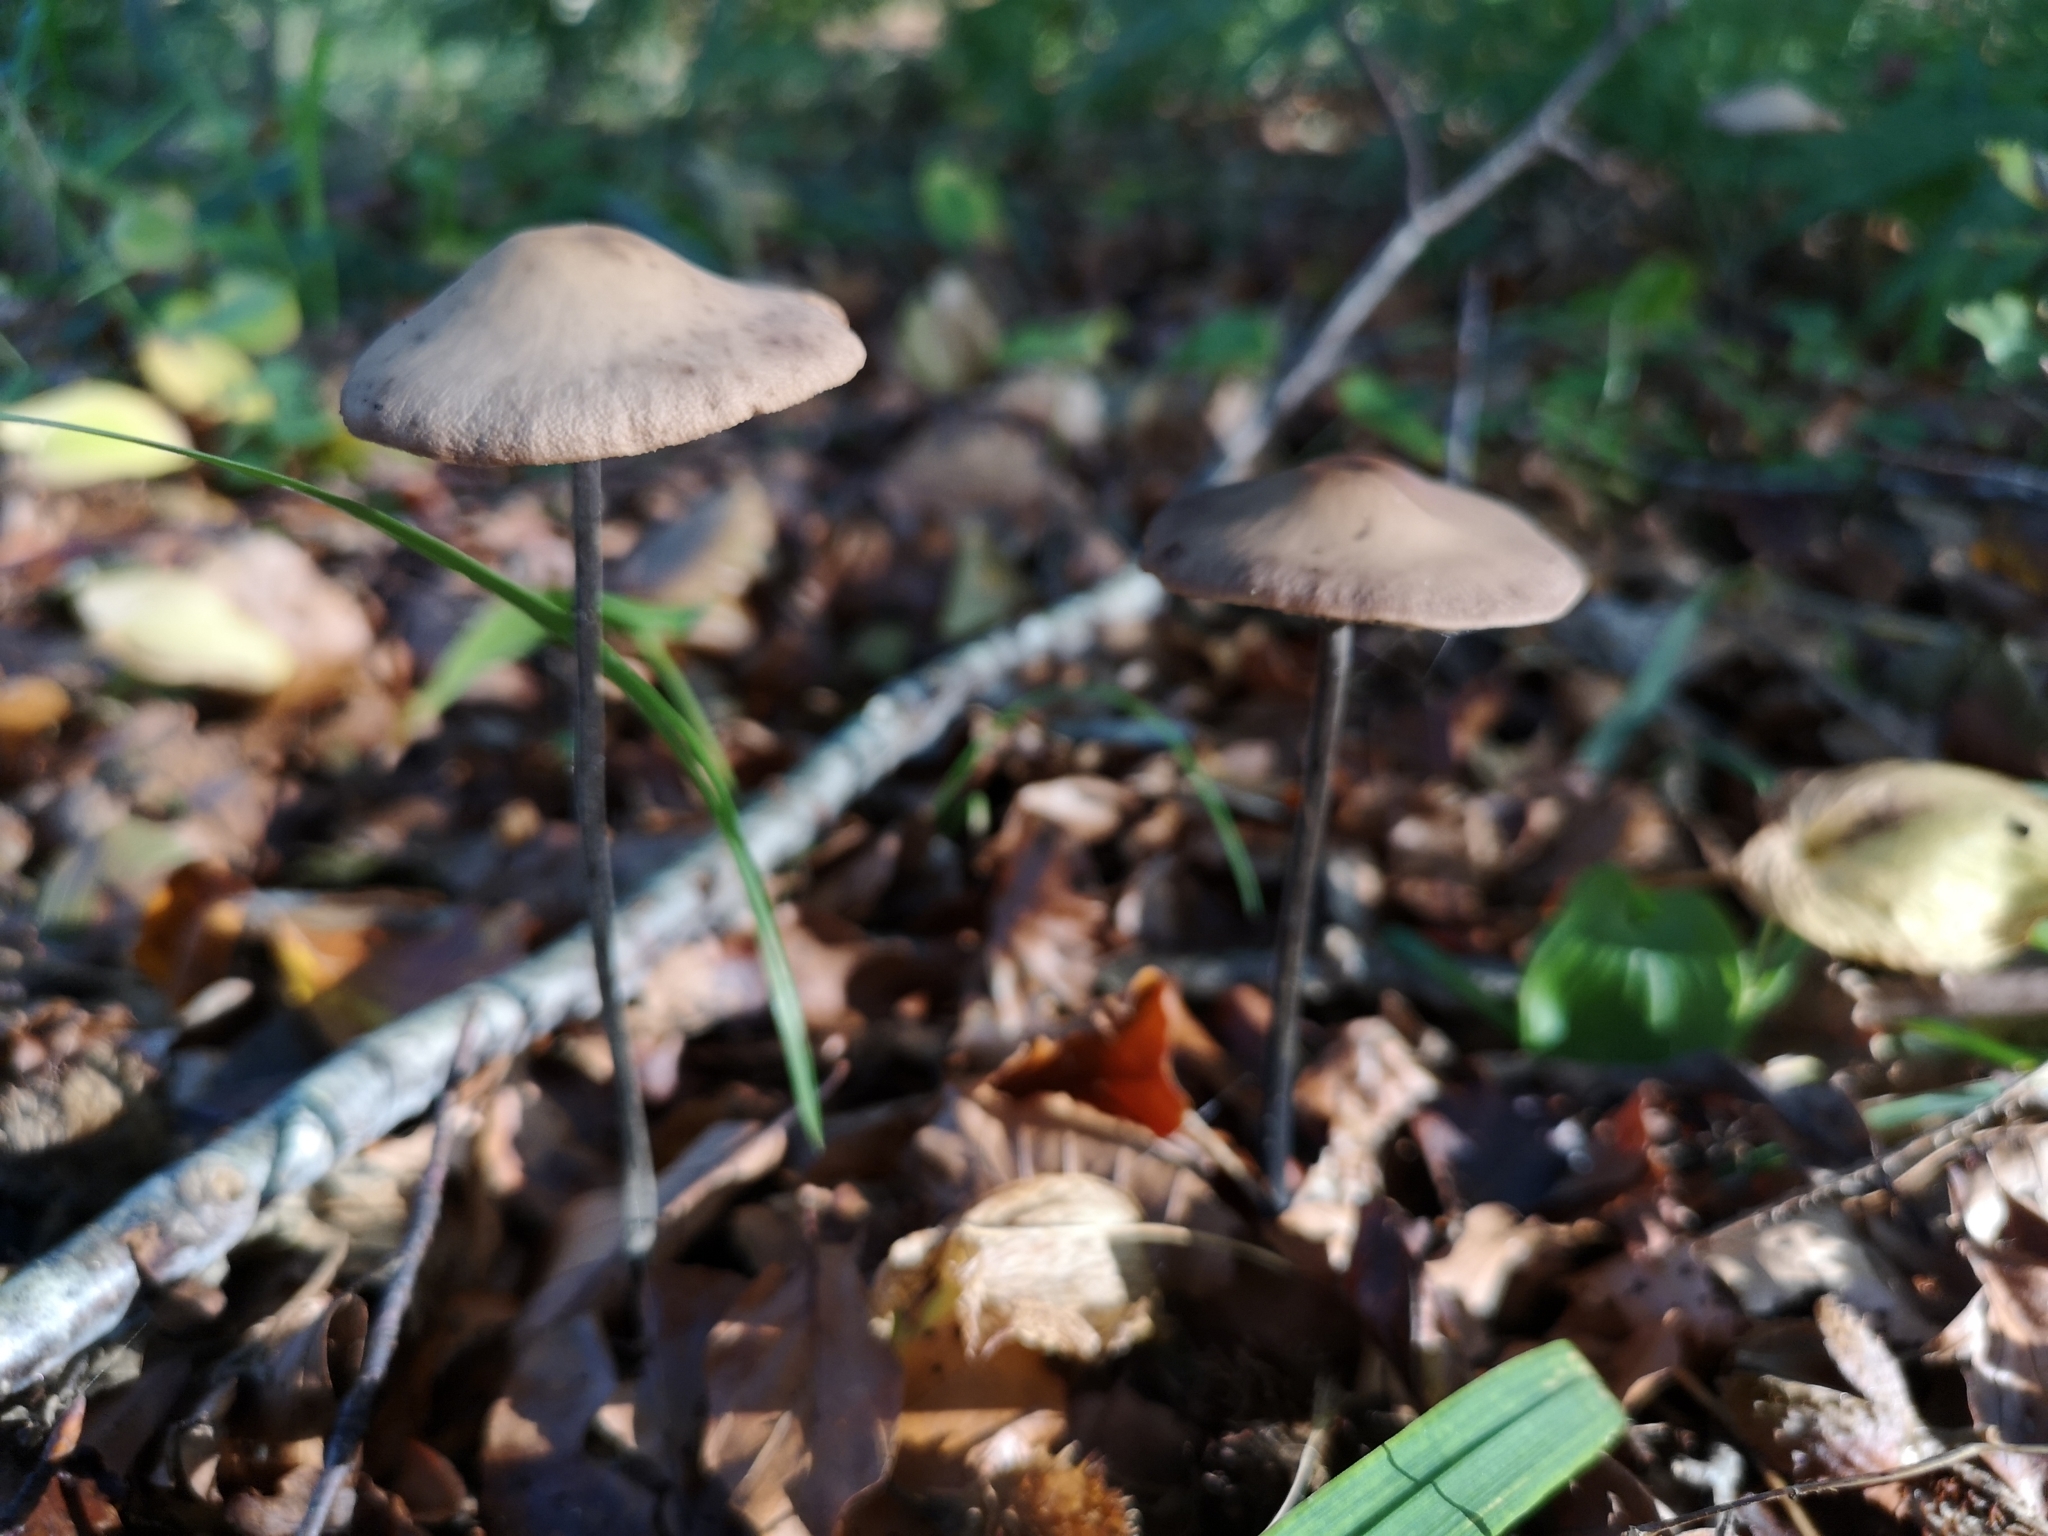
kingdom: Fungi
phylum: Basidiomycota
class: Agaricomycetes
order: Agaricales
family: Omphalotaceae
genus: Mycetinis
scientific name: Mycetinis alliaceus
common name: Garlic parachute
